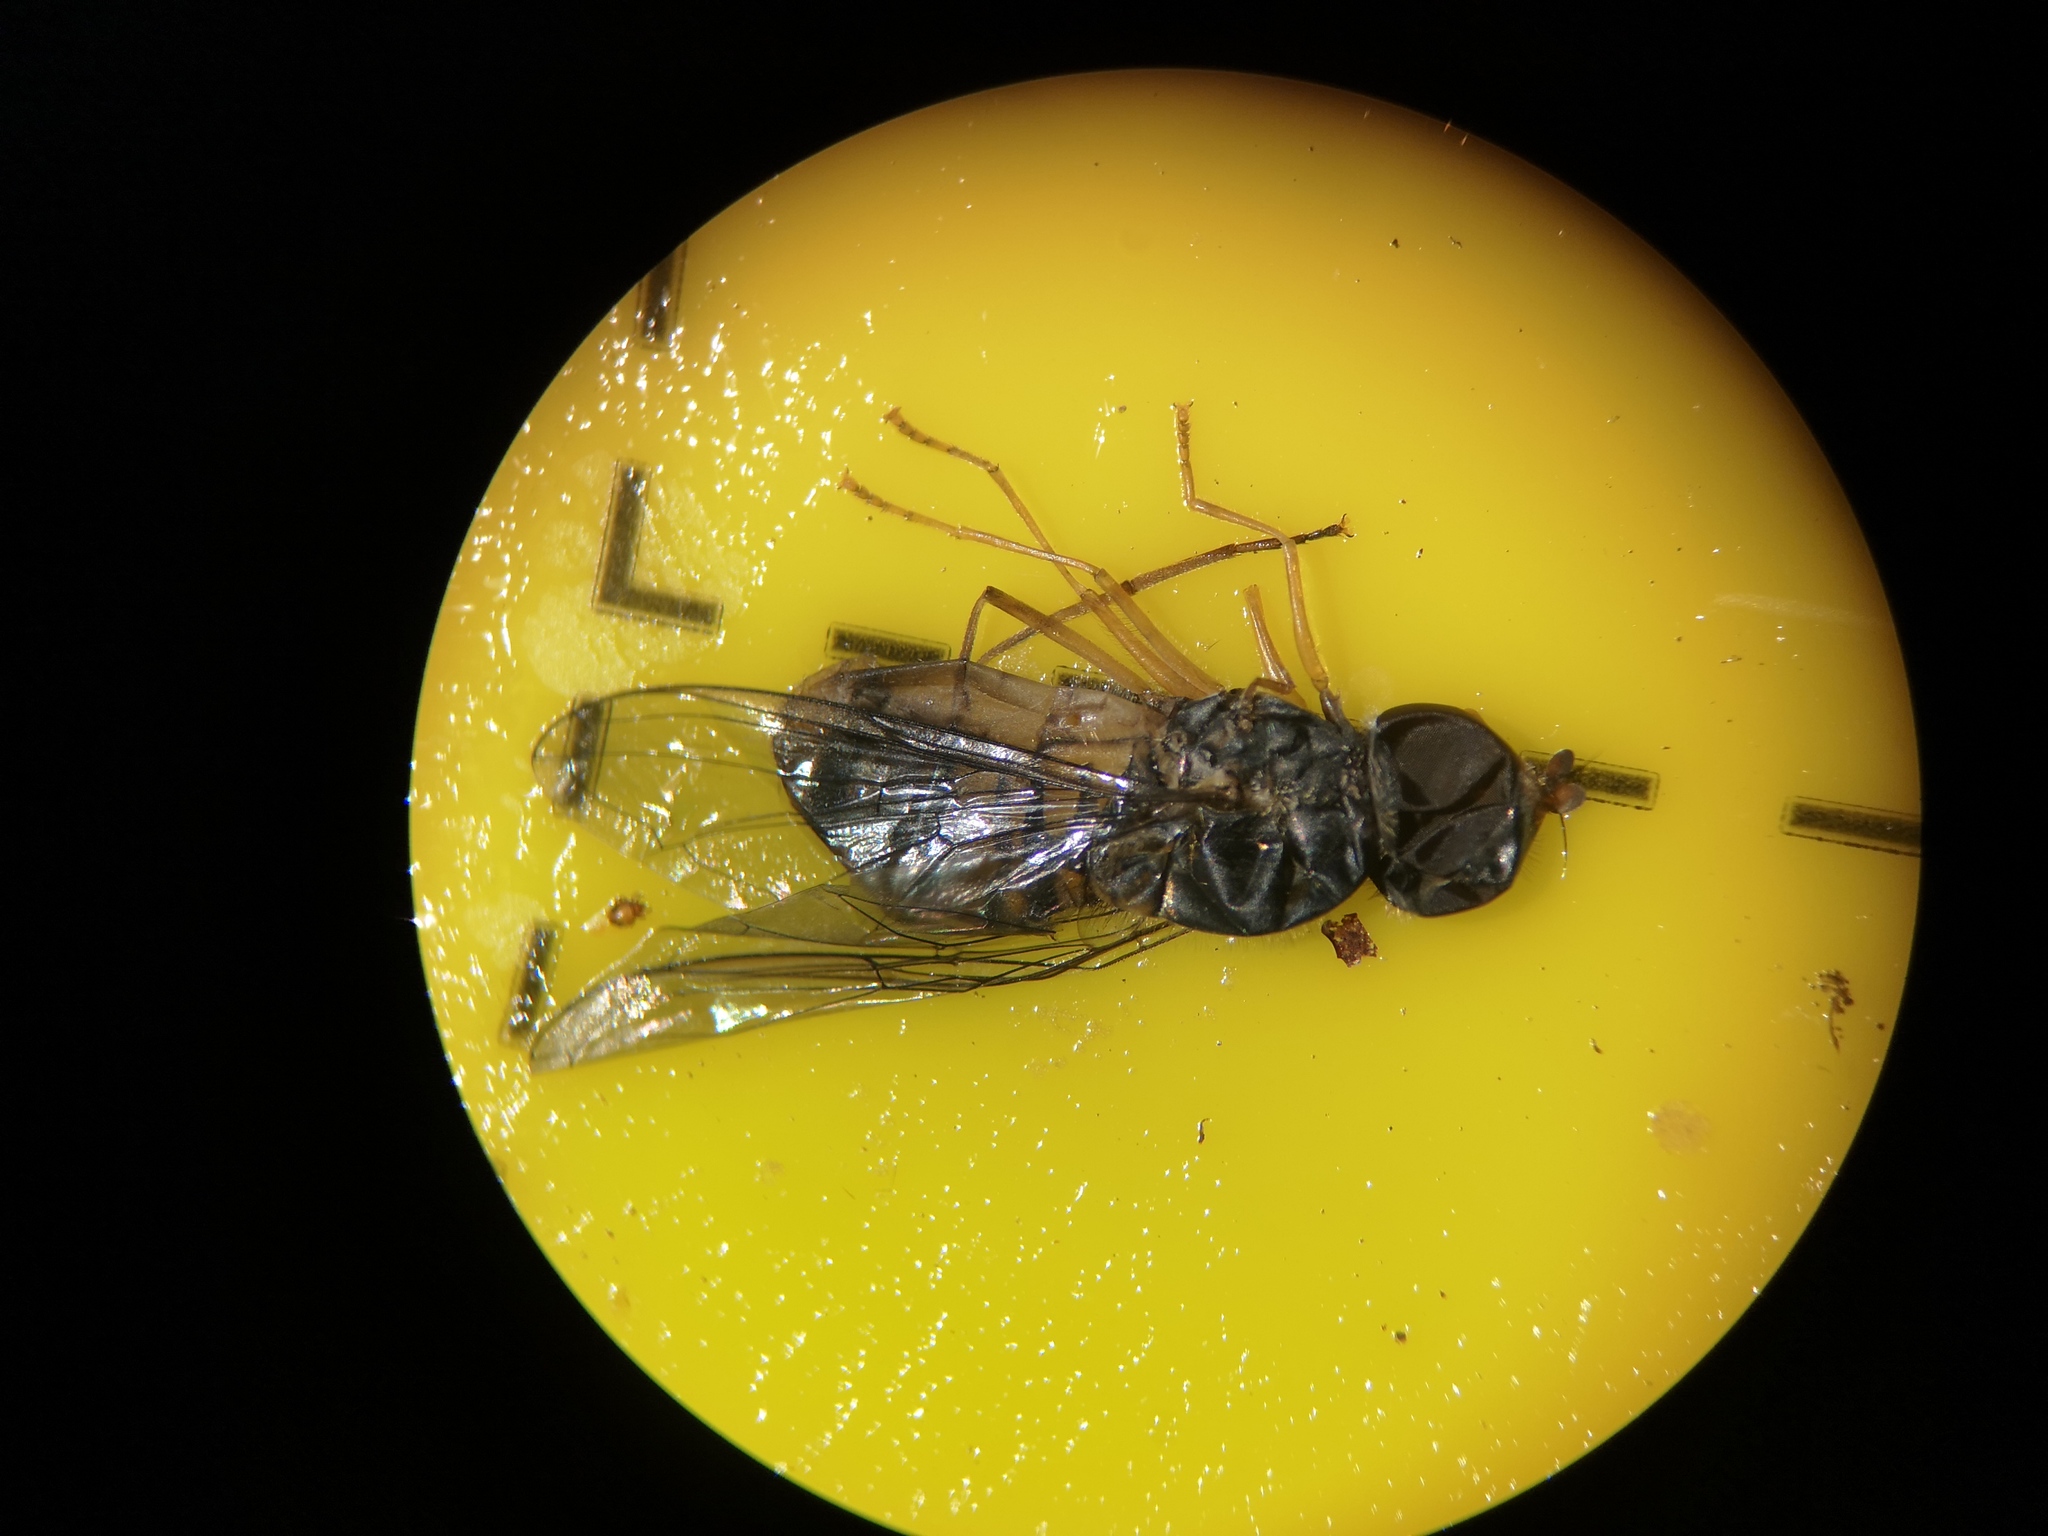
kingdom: Animalia
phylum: Arthropoda
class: Insecta
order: Diptera
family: Syrphidae
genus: Episyrphus
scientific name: Episyrphus balteatus
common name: Marmalade hoverfly
